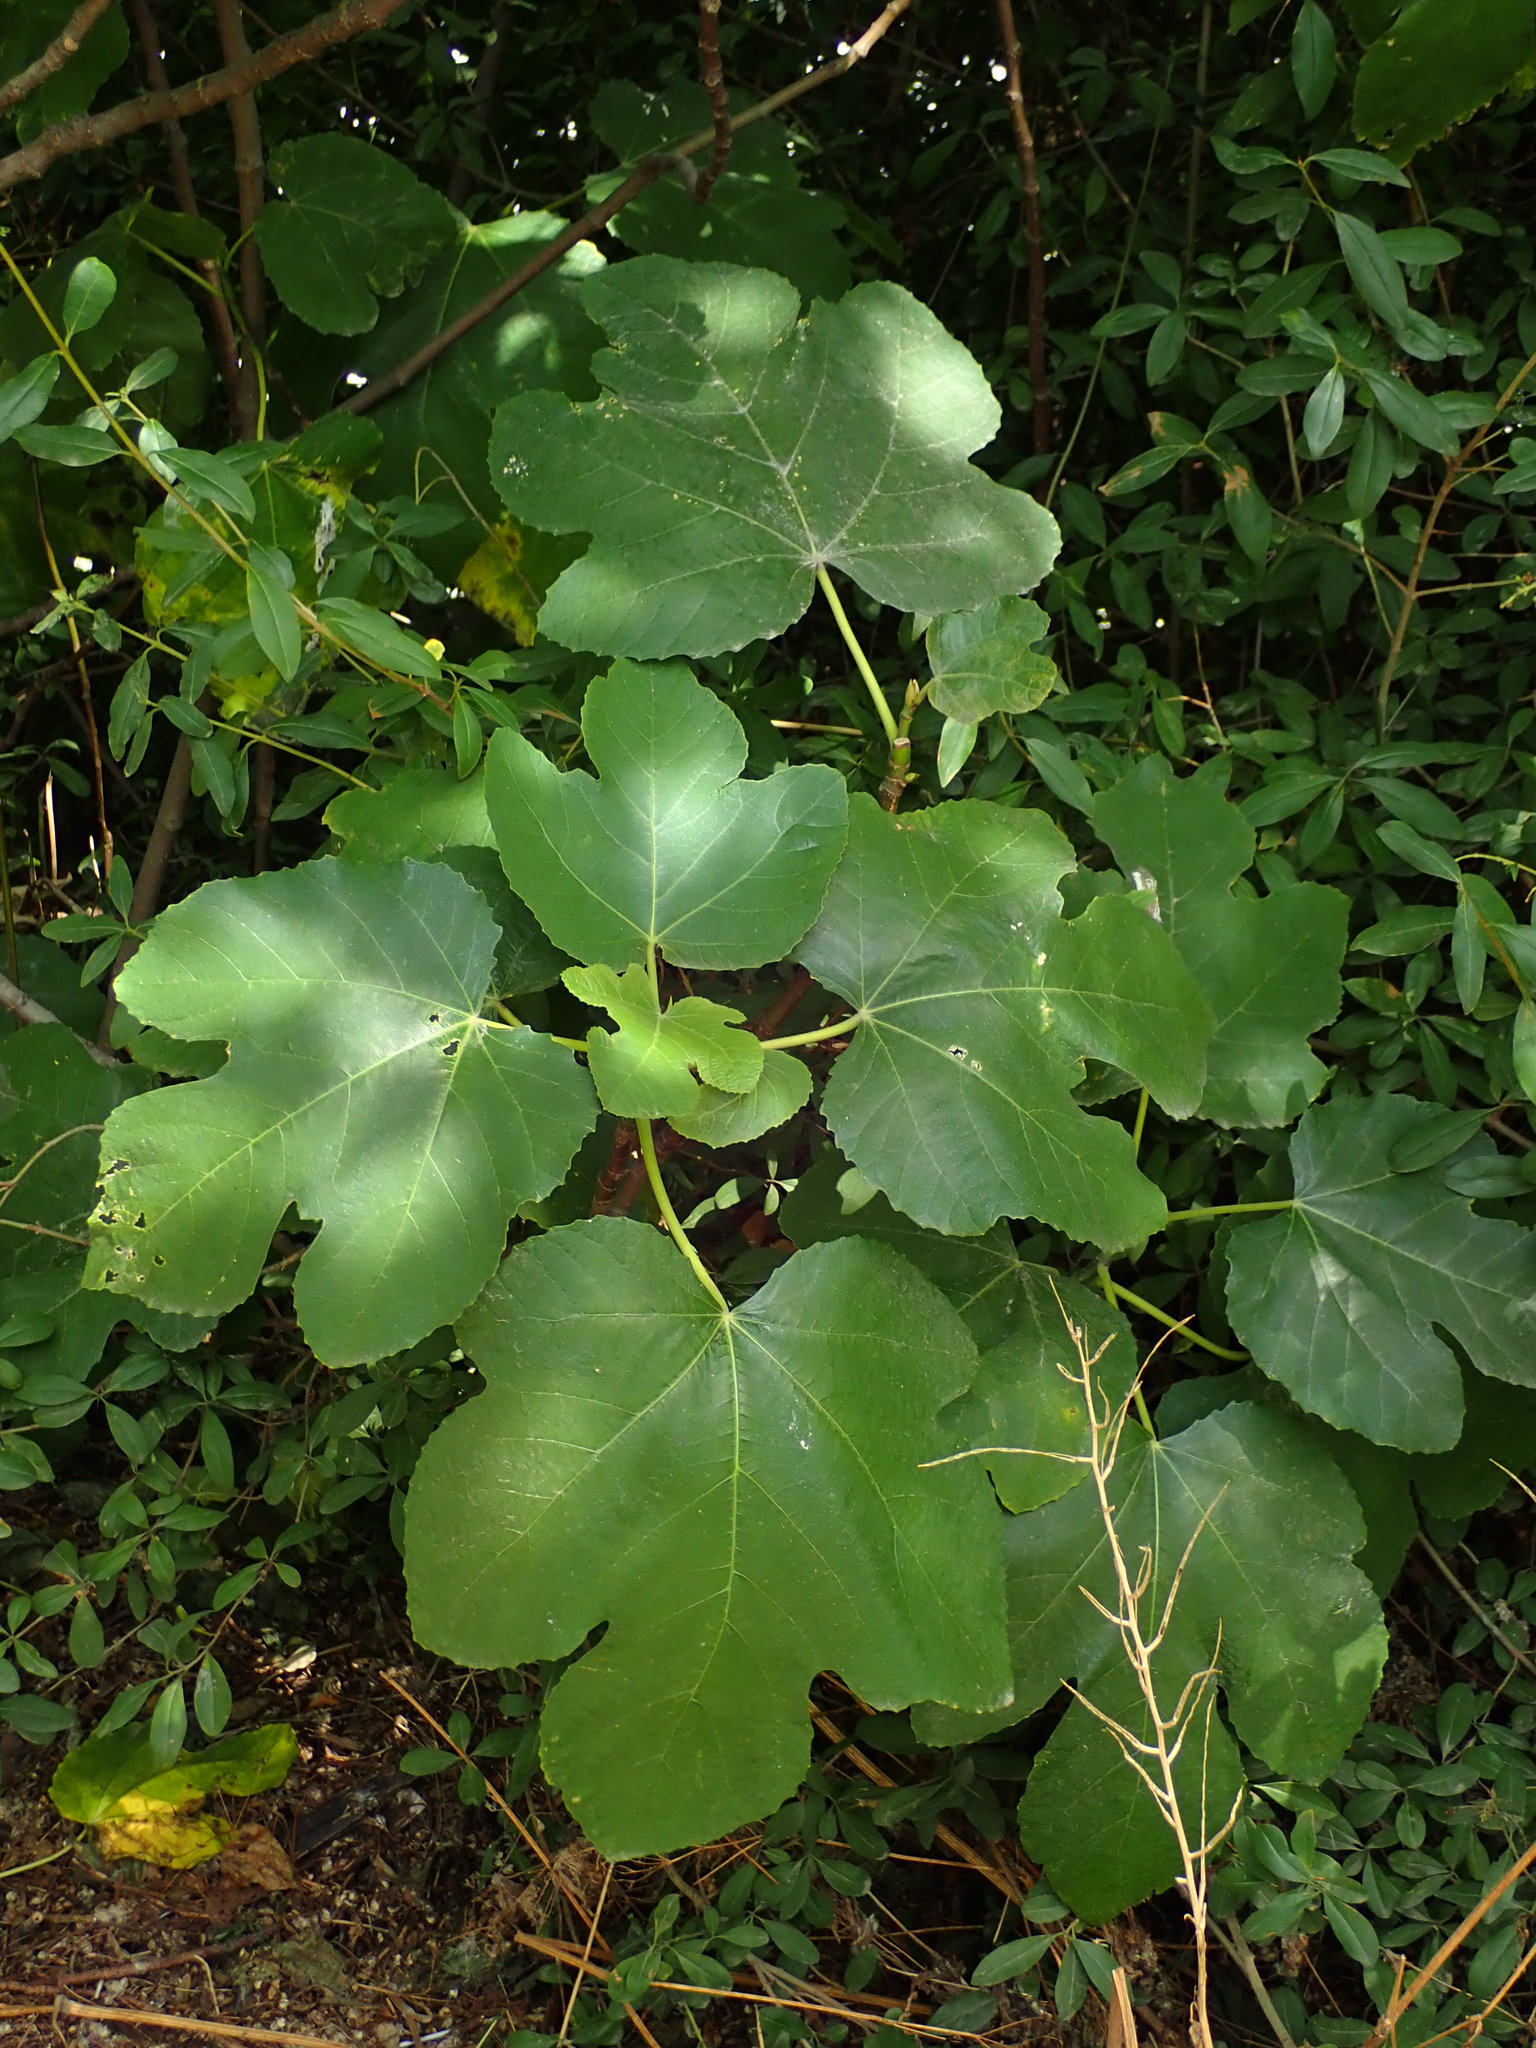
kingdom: Plantae
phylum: Tracheophyta
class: Magnoliopsida
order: Rosales
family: Moraceae
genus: Ficus
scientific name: Ficus carica
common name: Fig
